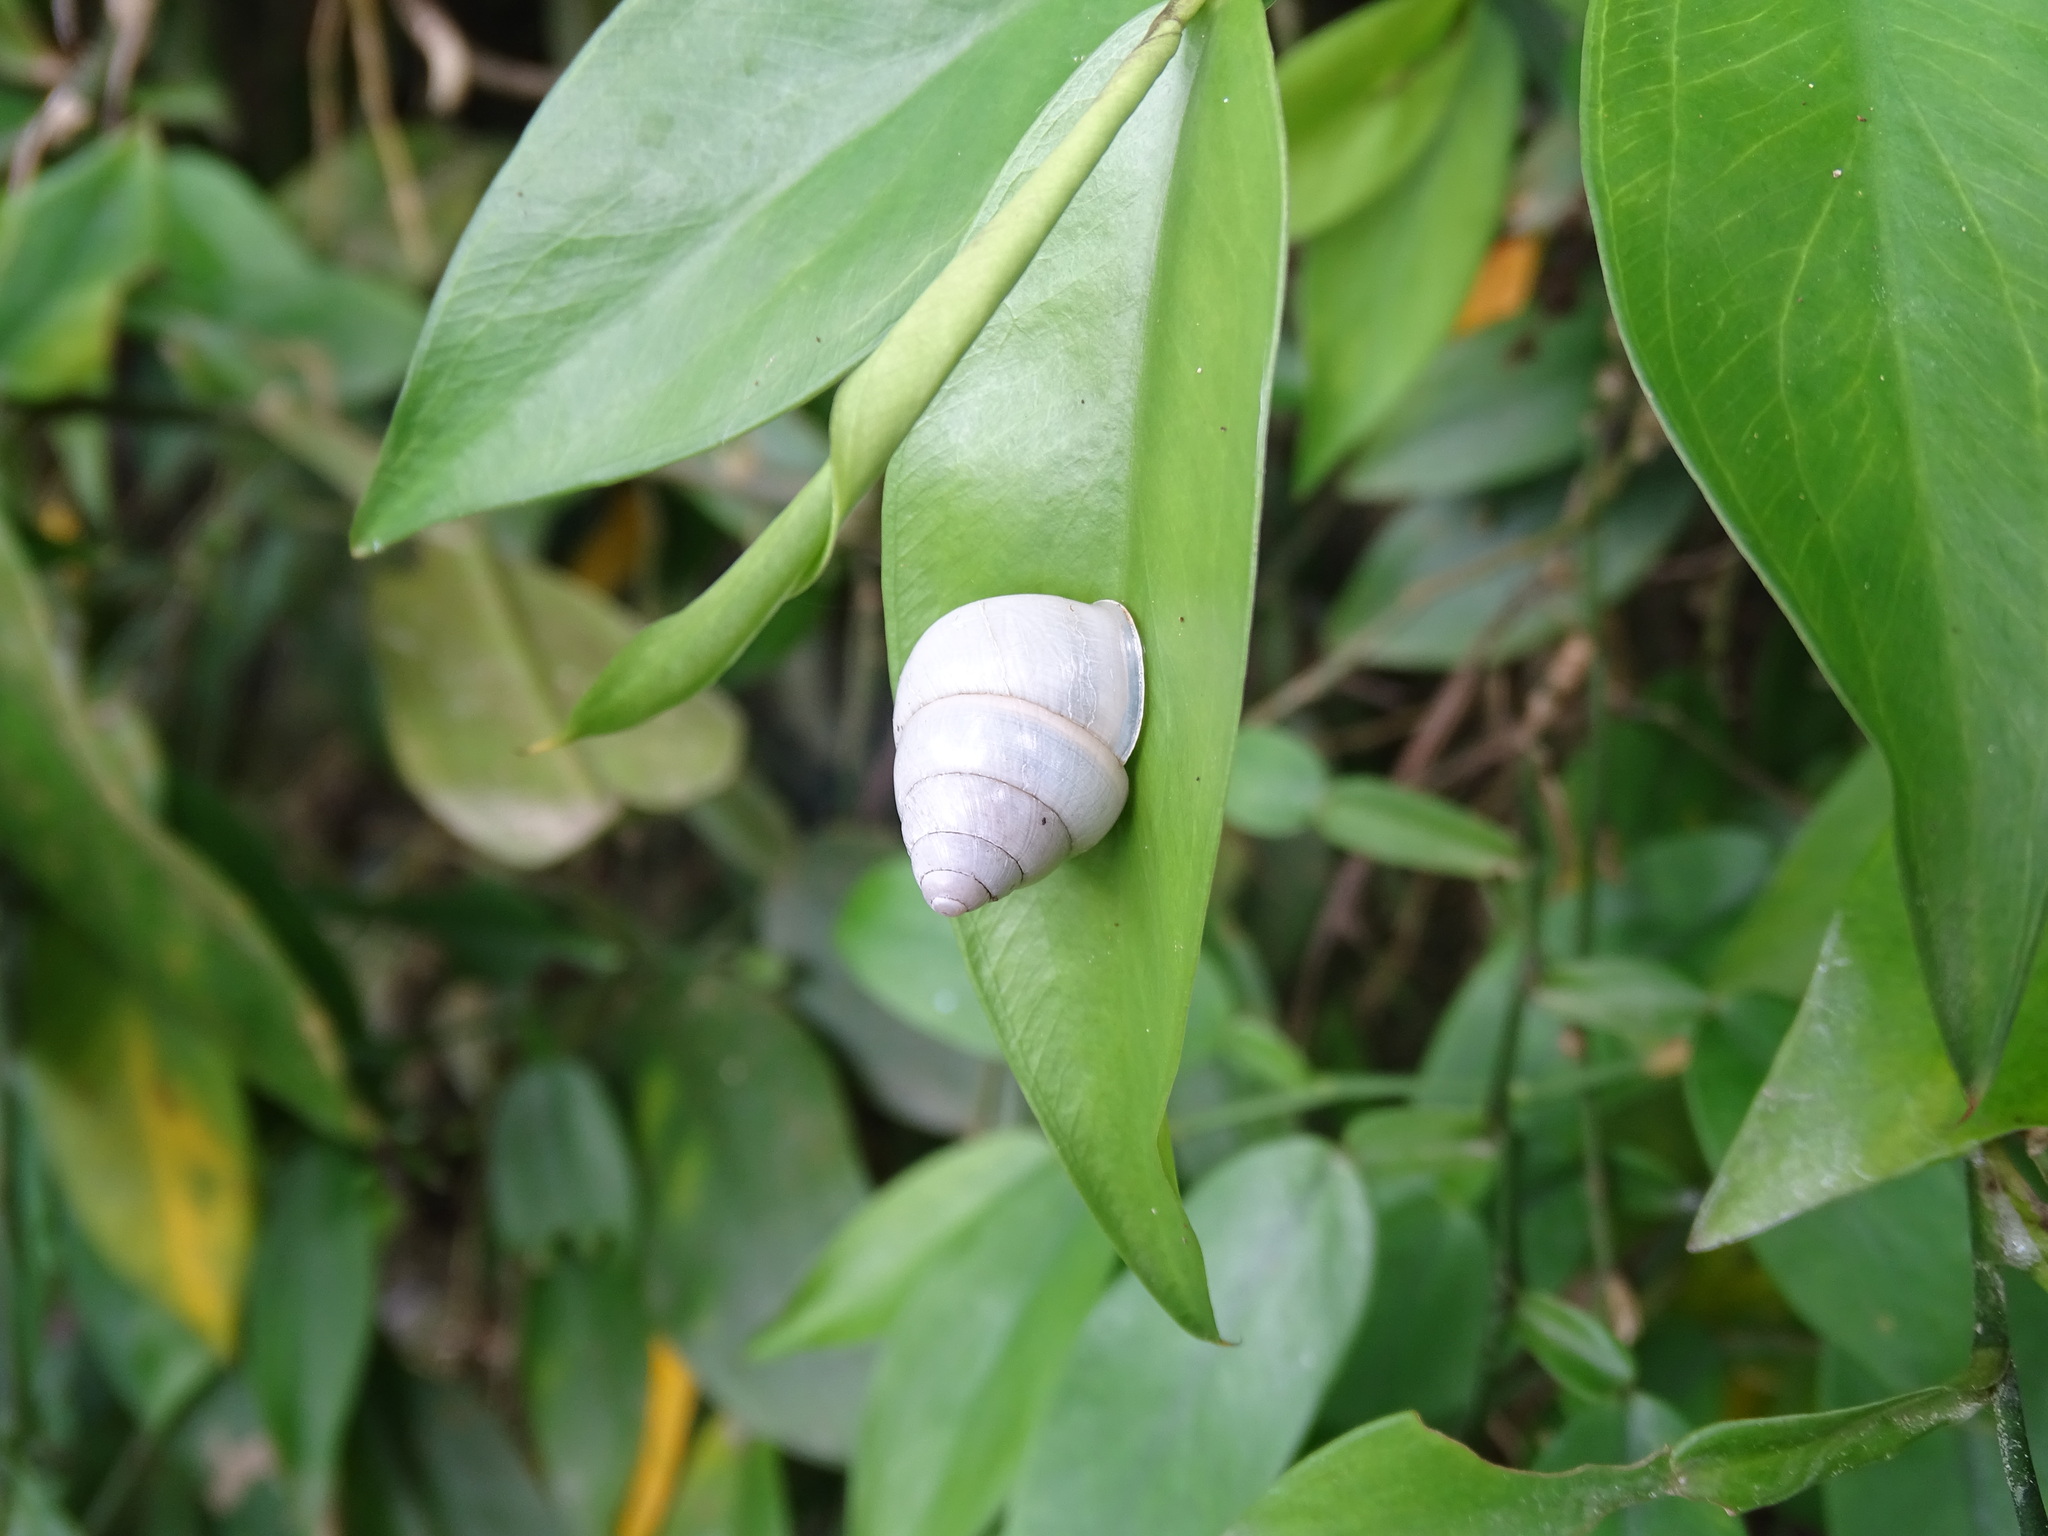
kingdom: Animalia
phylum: Mollusca
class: Gastropoda
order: Stylommatophora
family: Camaenidae
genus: Satsuma
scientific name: Satsuma careocaecum
